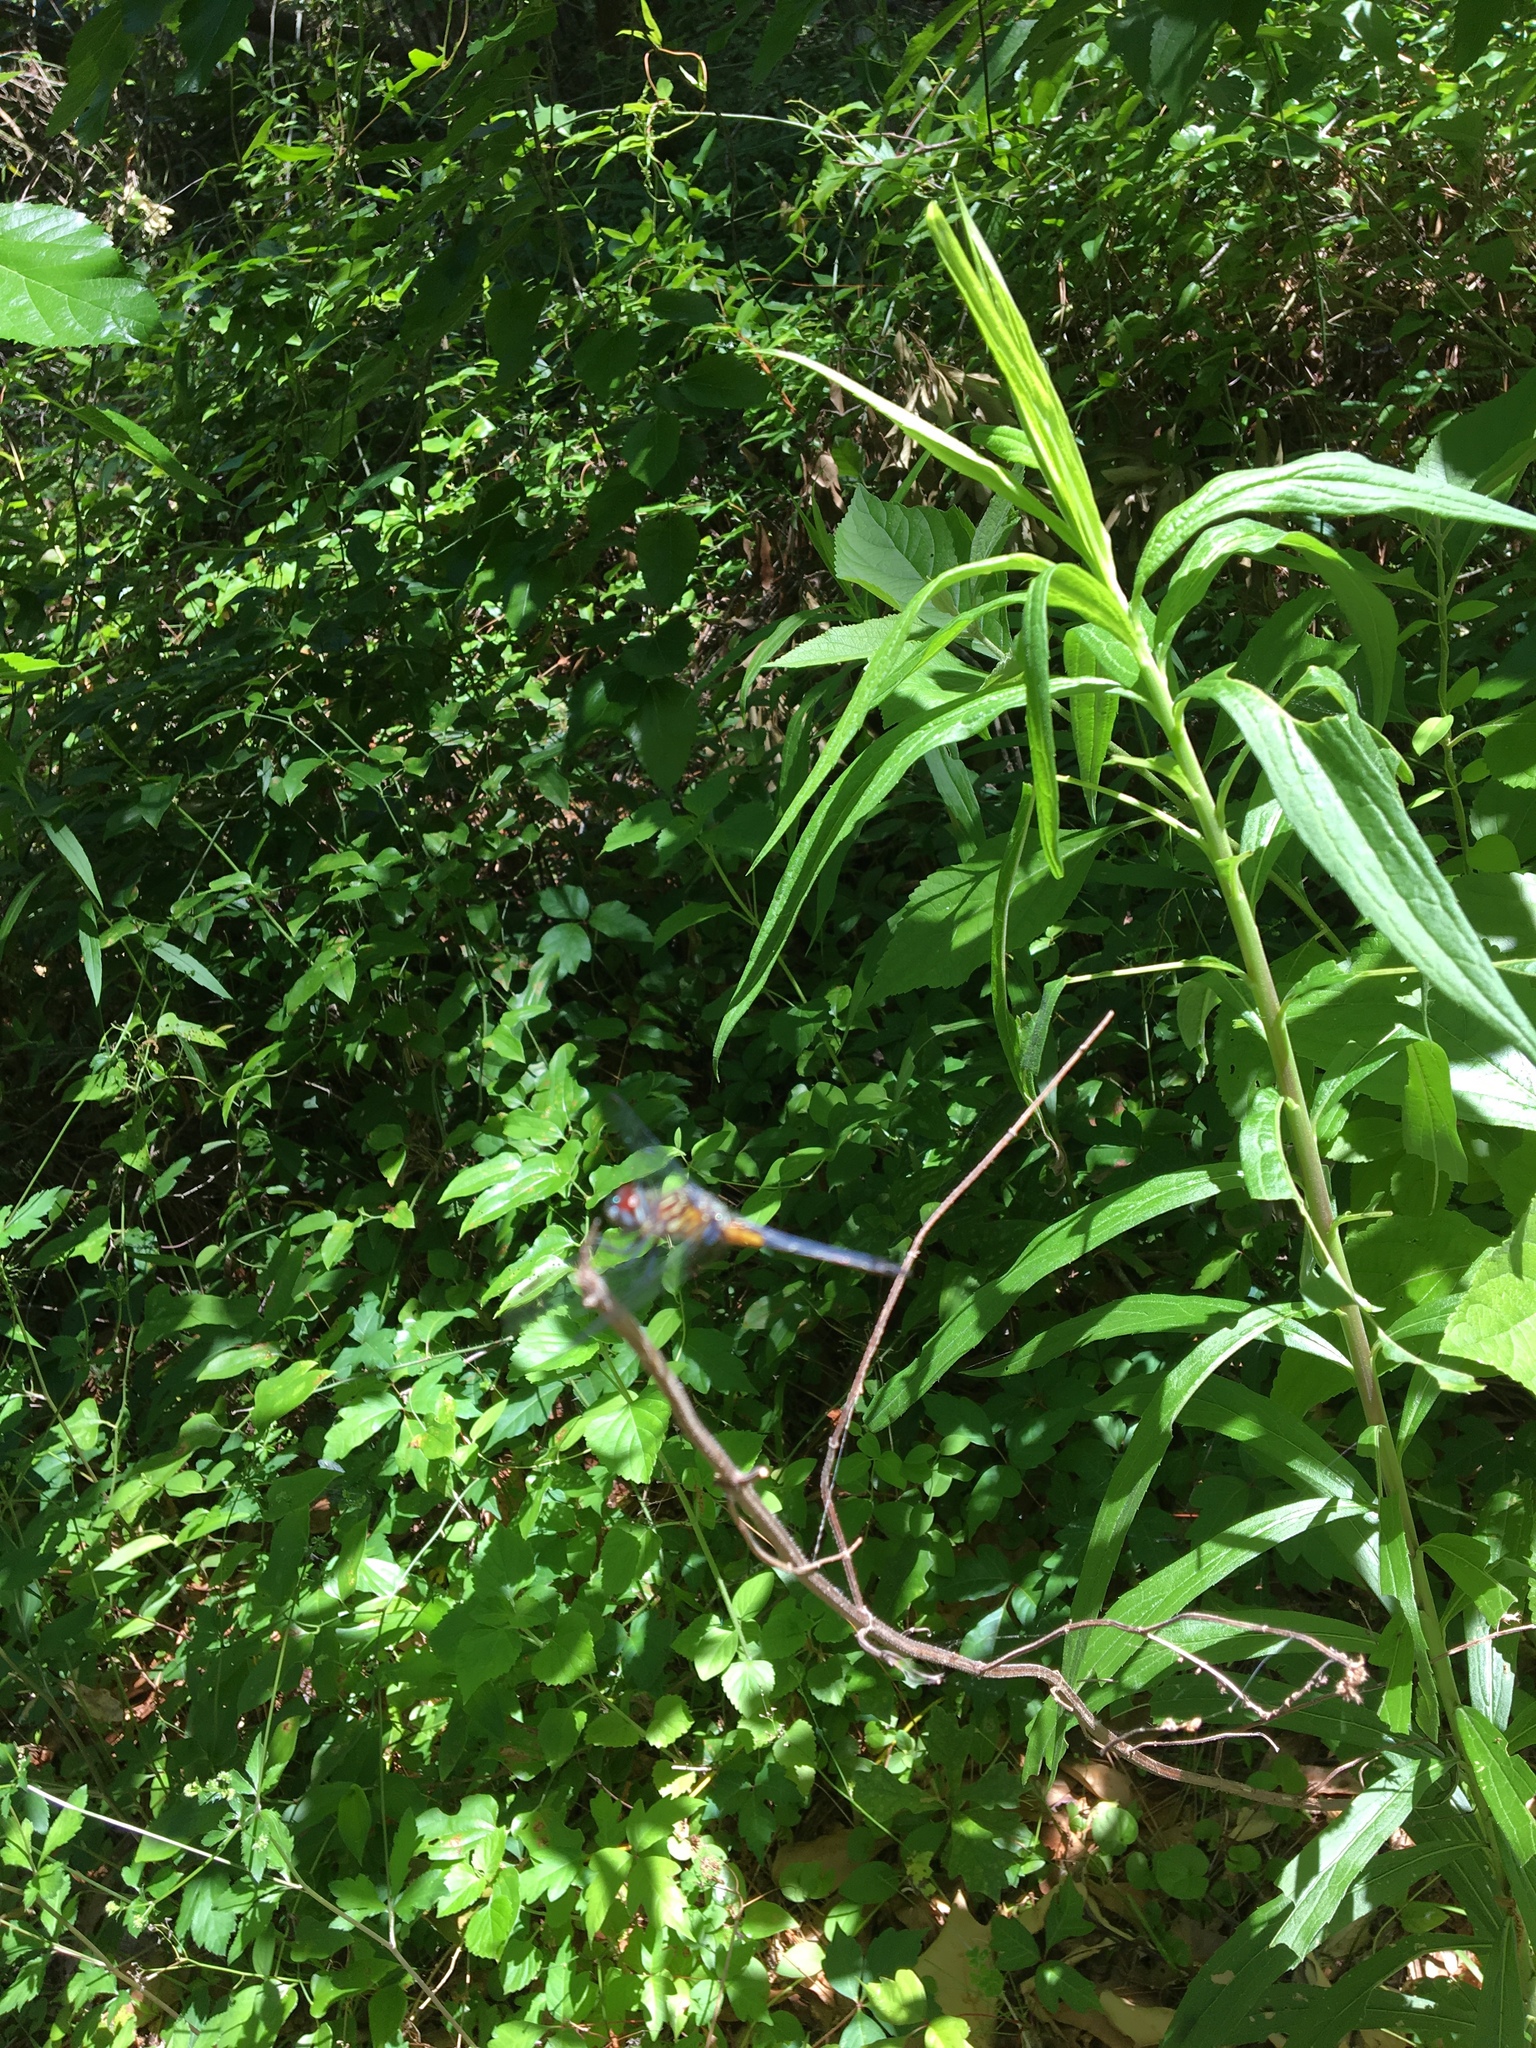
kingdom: Animalia
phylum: Arthropoda
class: Insecta
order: Odonata
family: Libellulidae
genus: Pachydiplax
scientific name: Pachydiplax longipennis
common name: Blue dasher
